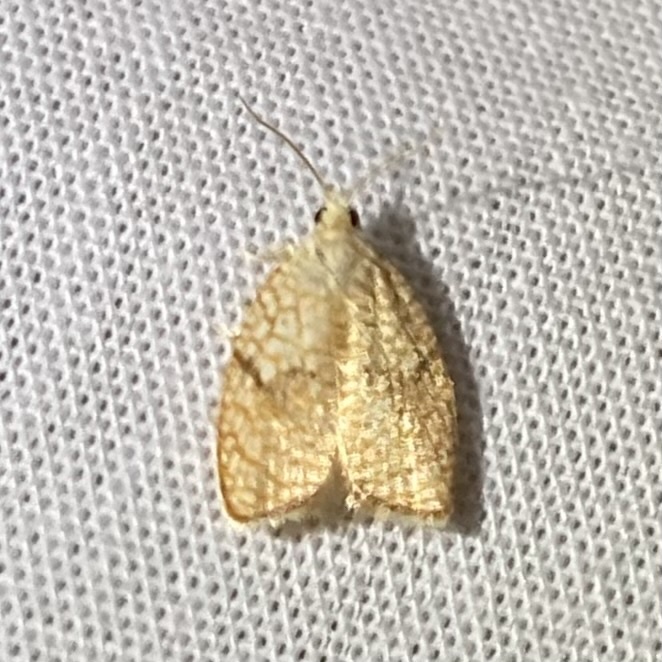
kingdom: Animalia
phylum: Arthropoda
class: Insecta
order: Lepidoptera
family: Tortricidae
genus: Acleris
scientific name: Acleris forsskaleana
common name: Maple button
